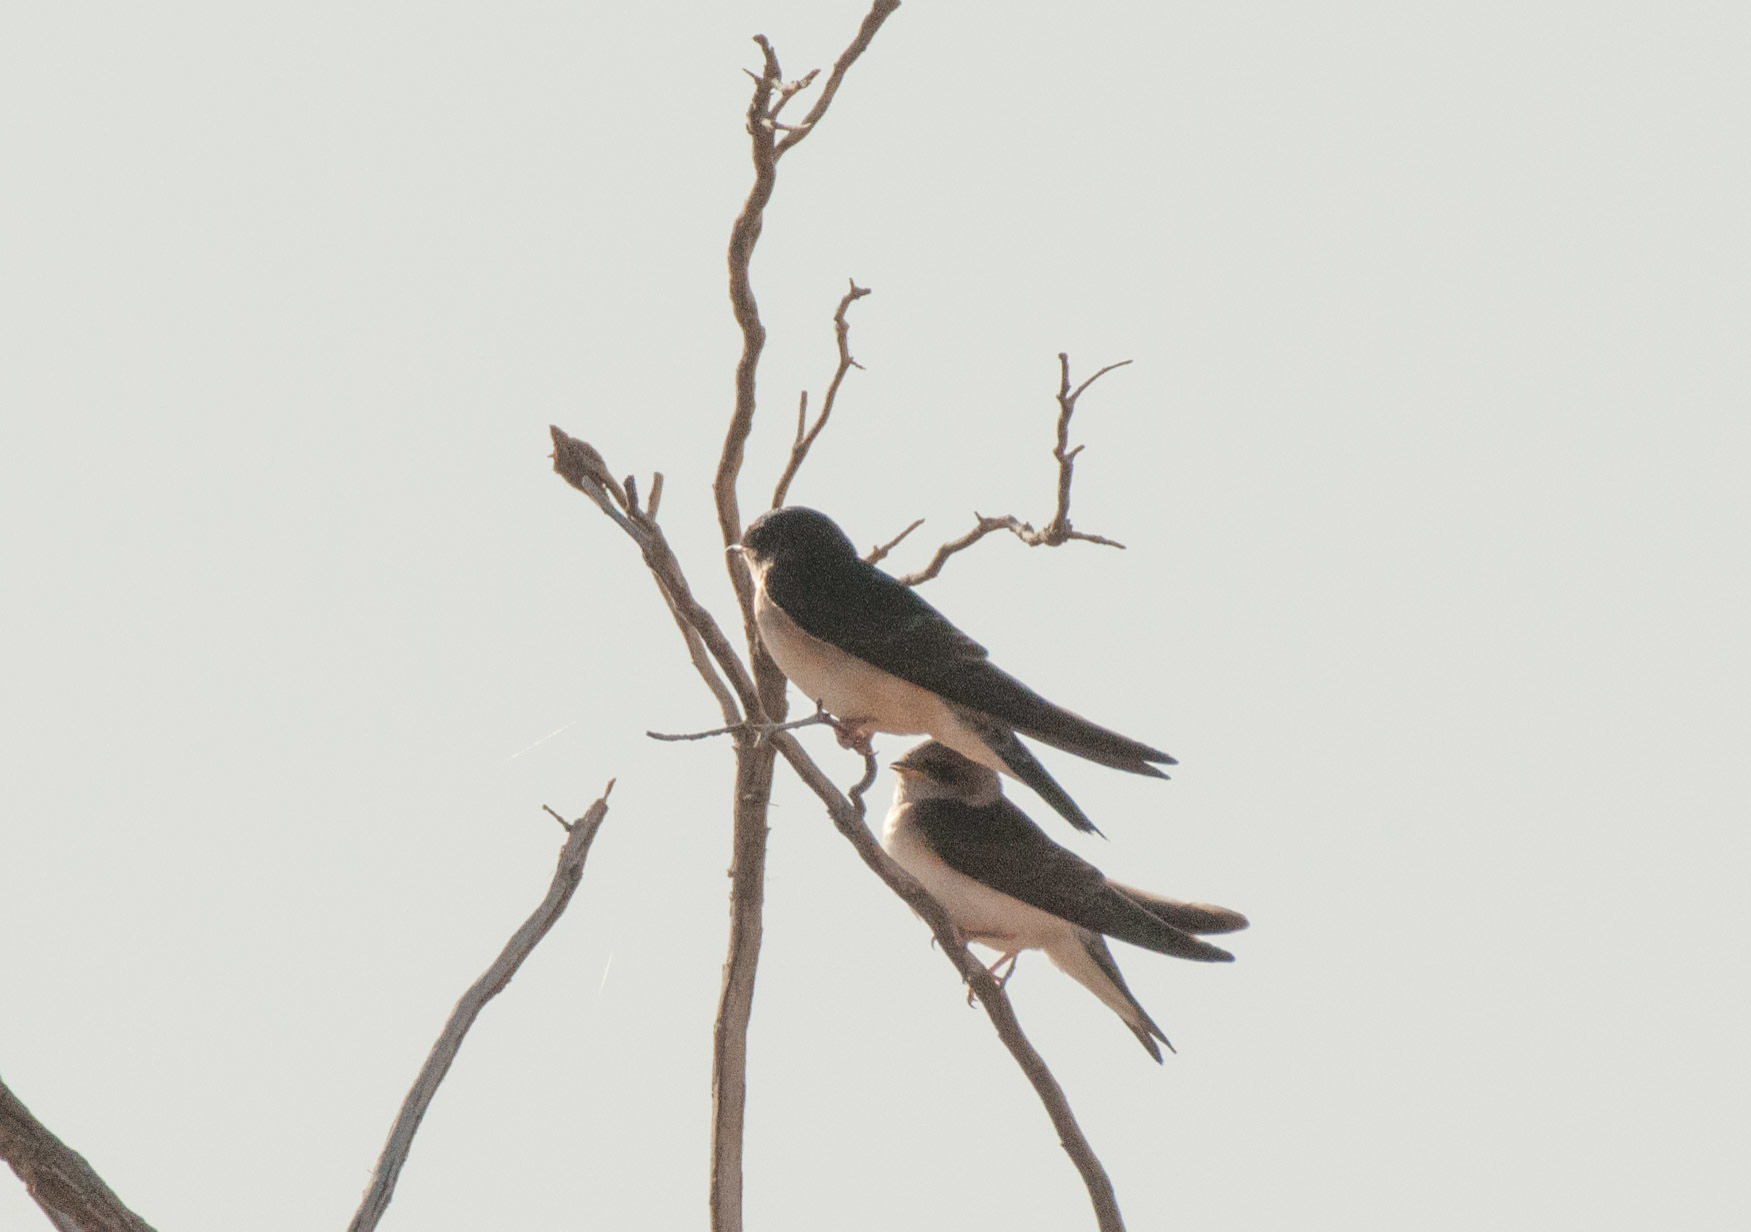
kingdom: Animalia
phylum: Chordata
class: Aves
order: Passeriformes
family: Hirundinidae
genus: Petrochelidon
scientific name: Petrochelidon nigricans
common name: Tree martin
